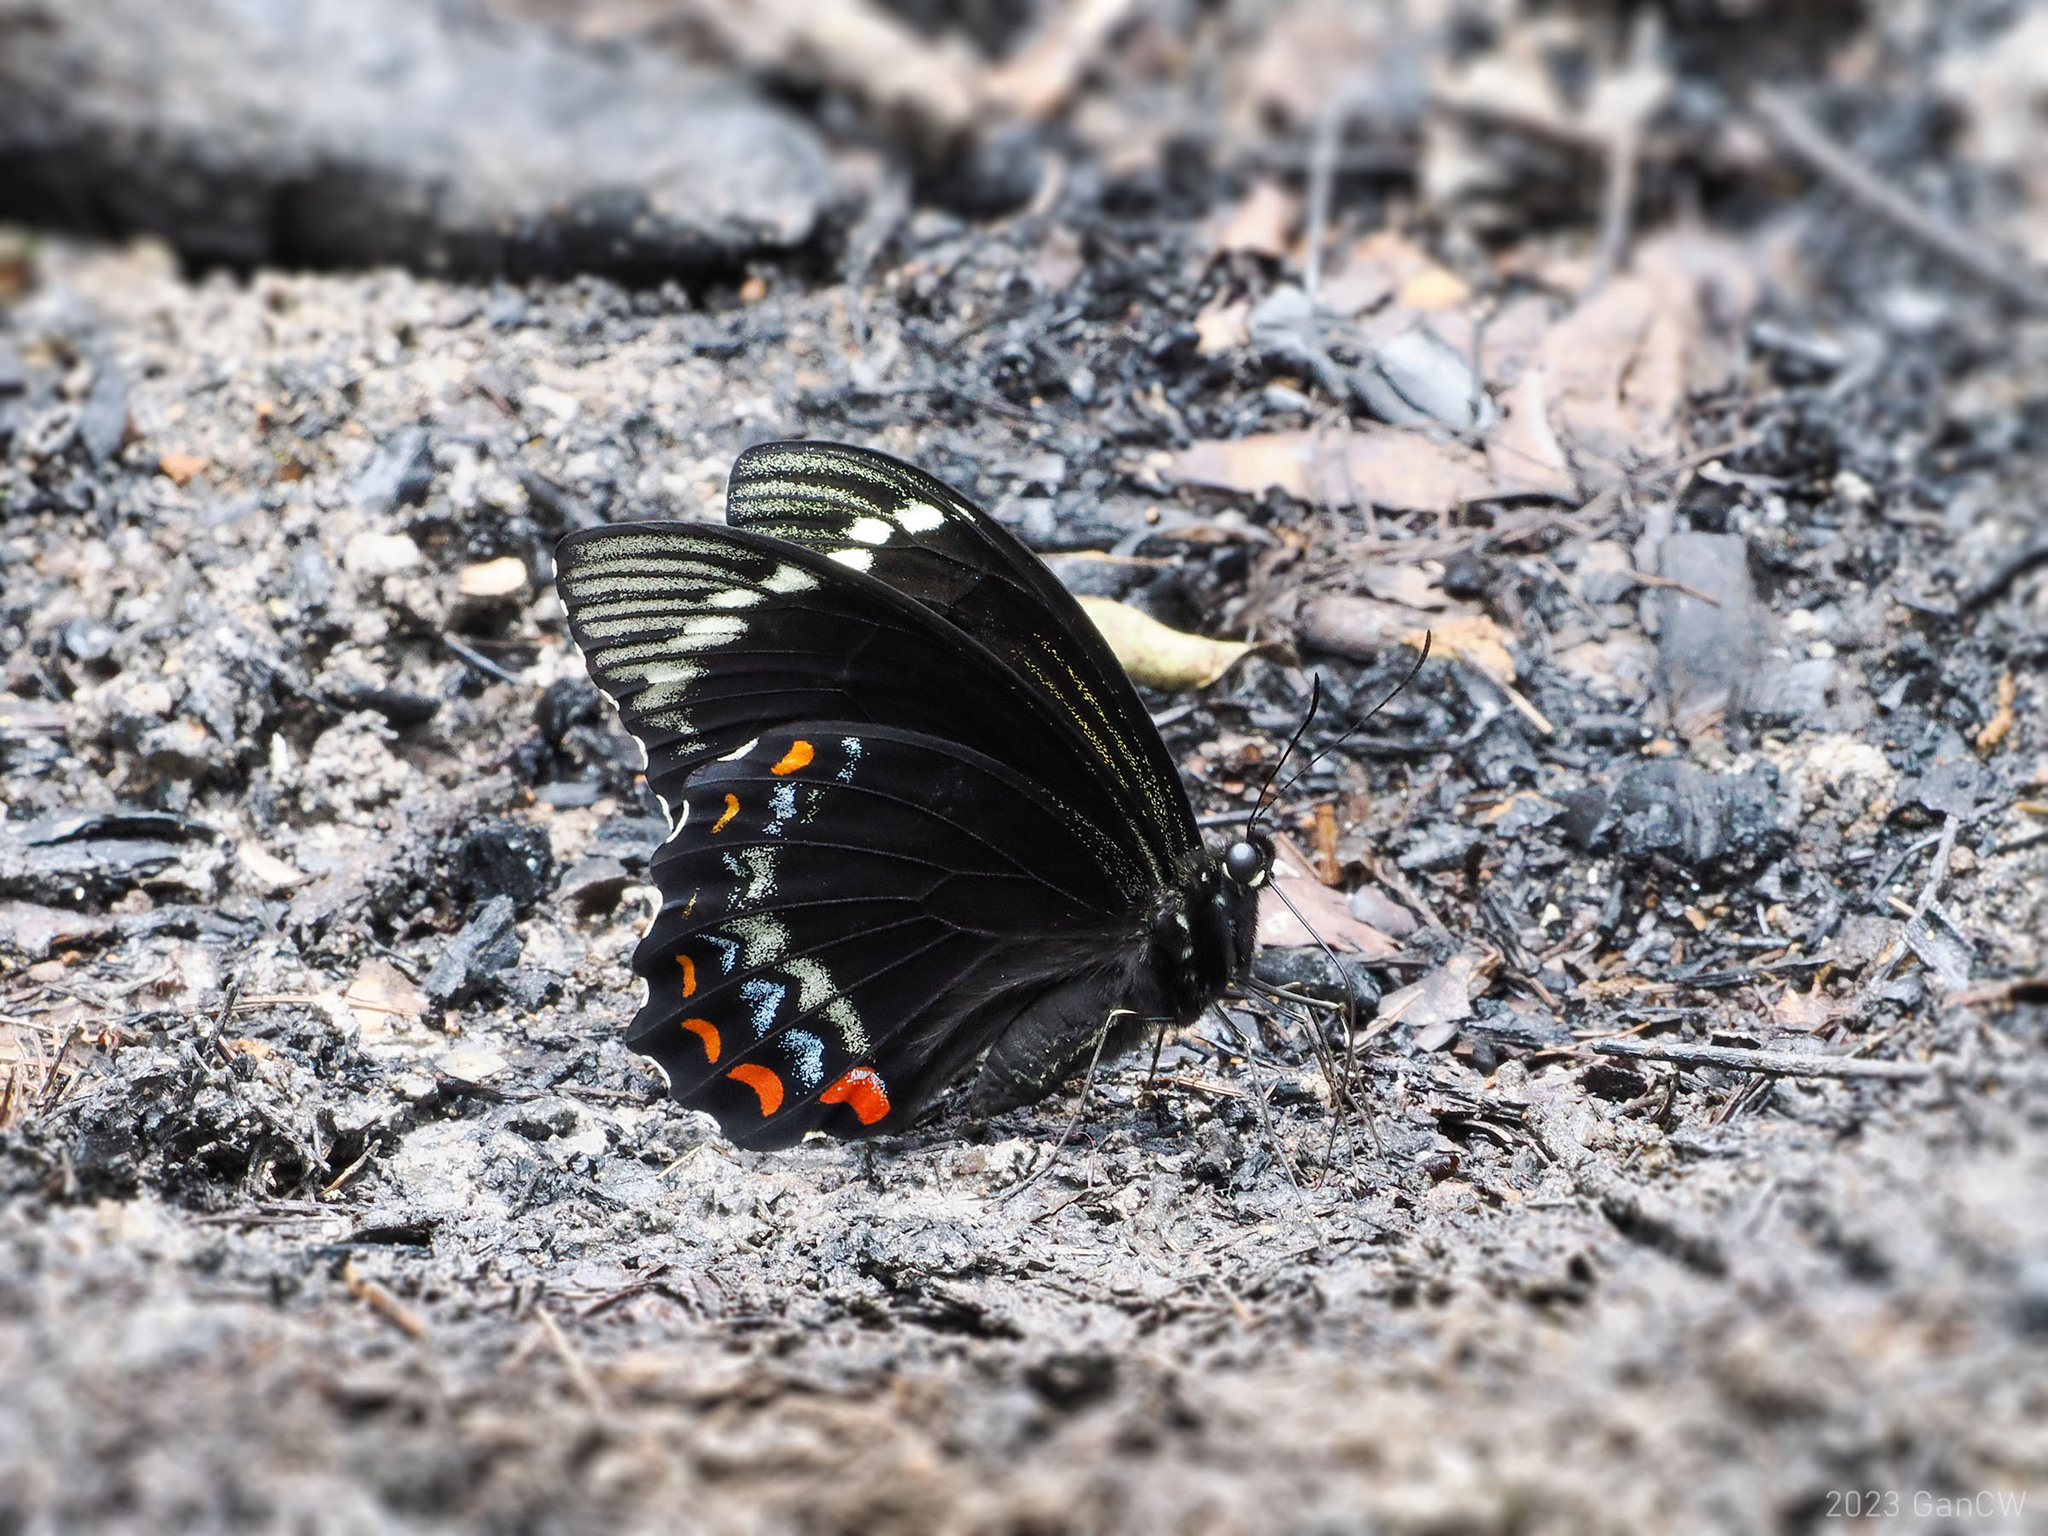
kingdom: Animalia
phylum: Arthropoda
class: Insecta
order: Lepidoptera
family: Papilionidae
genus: Papilio
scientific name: Papilio aegeus
